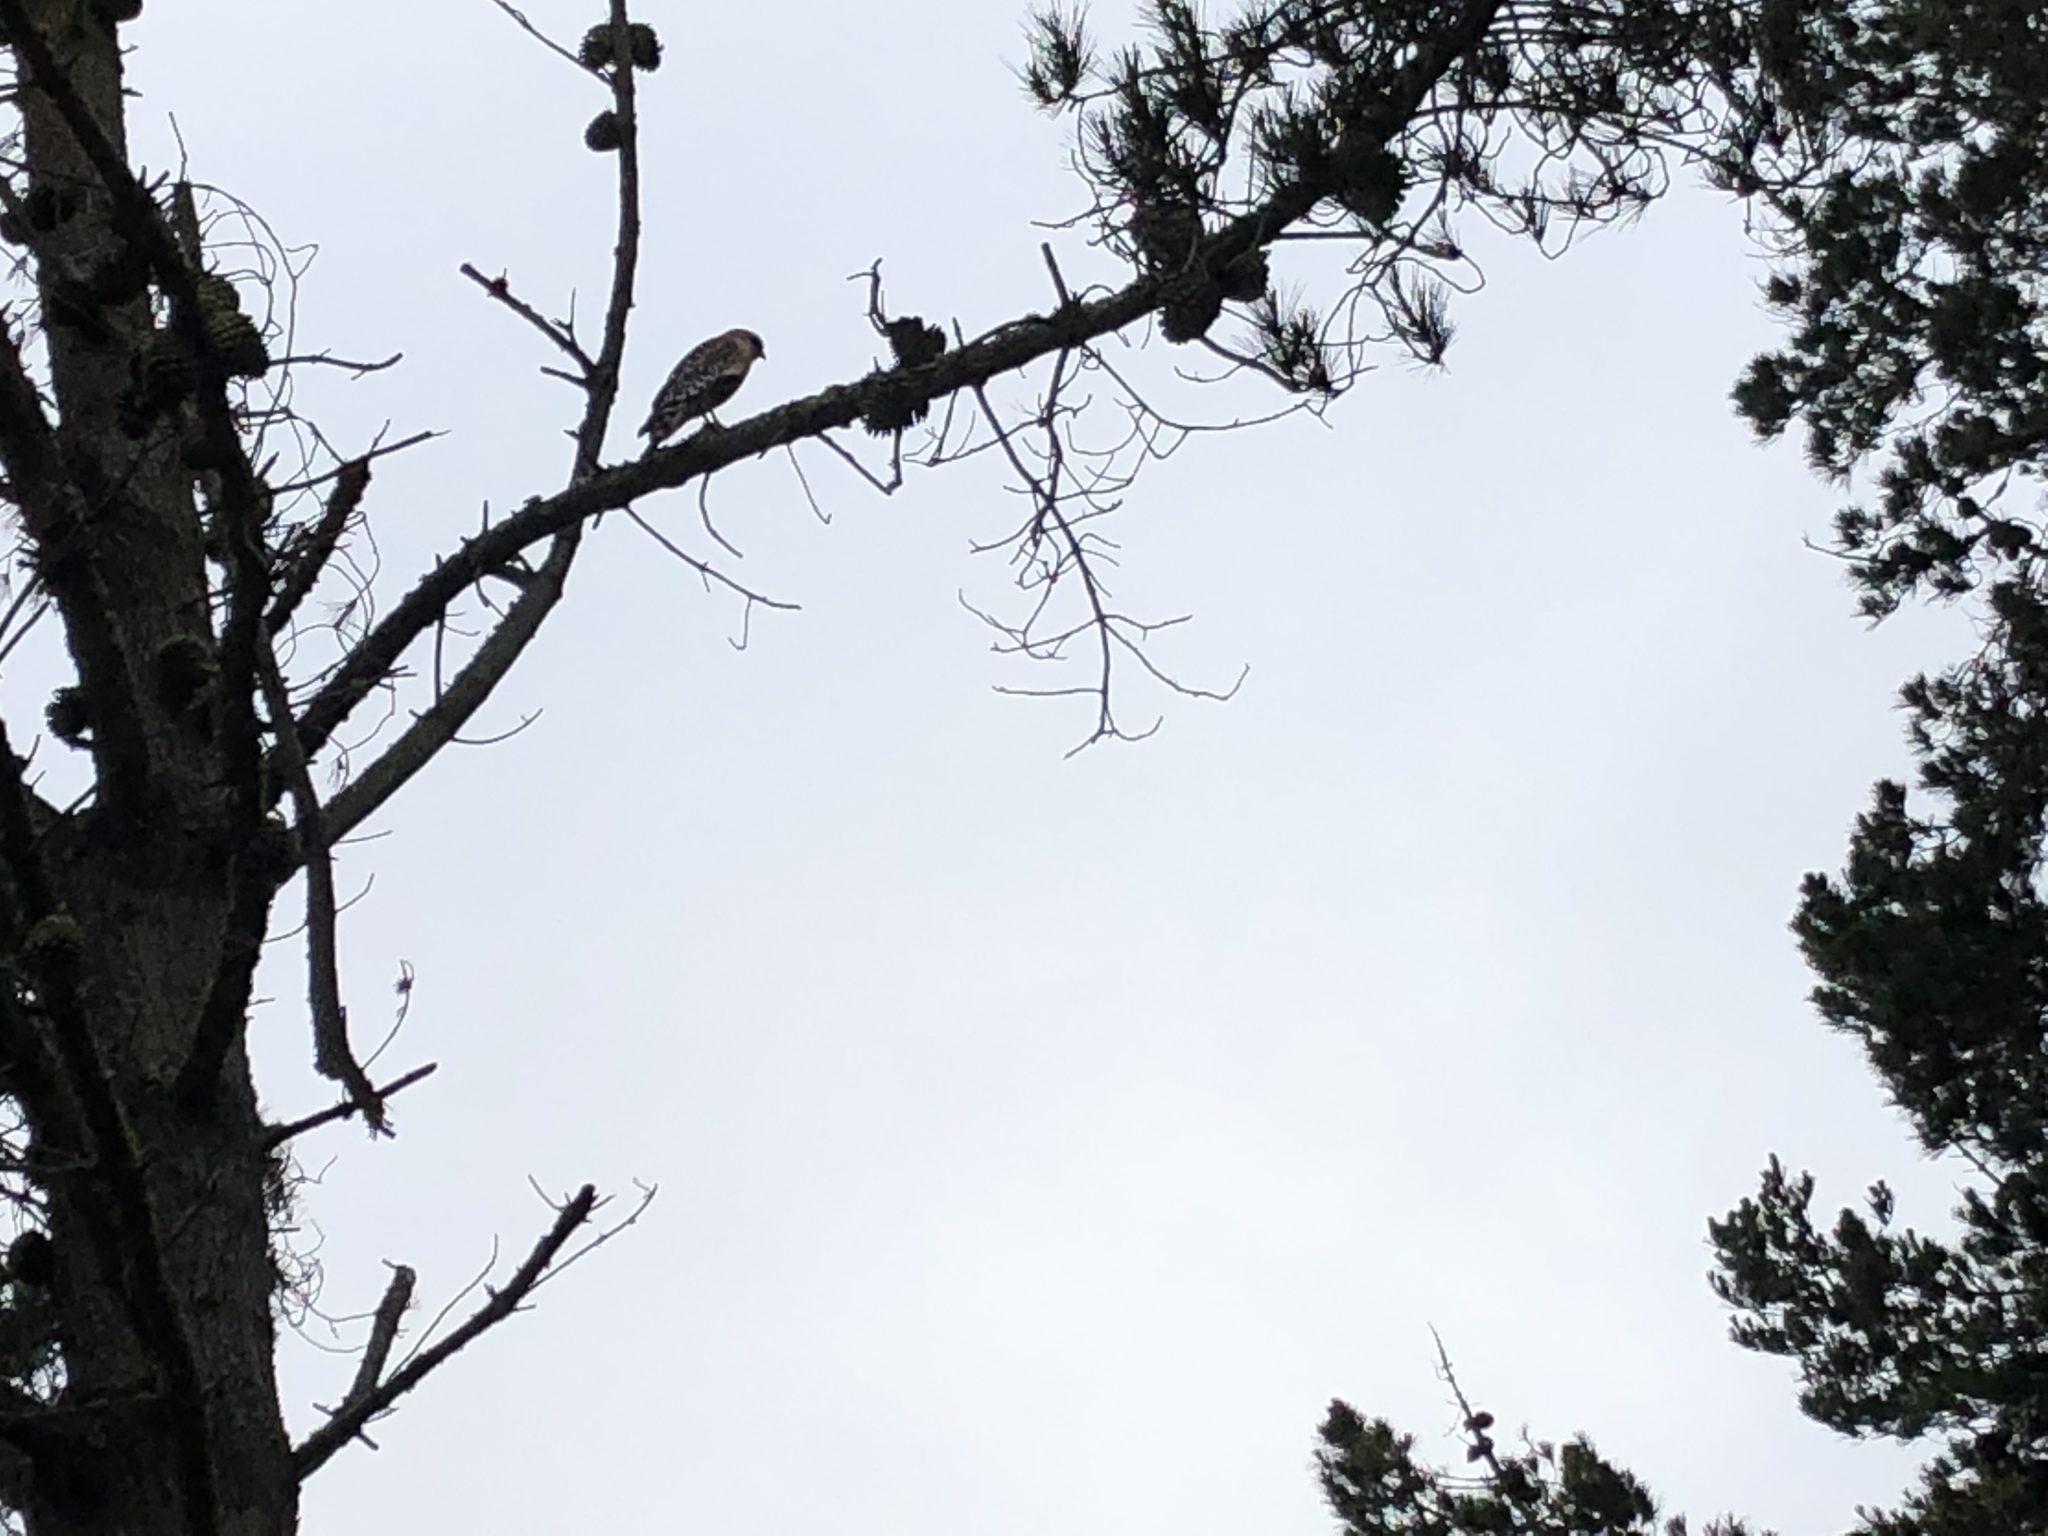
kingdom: Animalia
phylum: Chordata
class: Aves
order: Accipitriformes
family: Accipitridae
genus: Buteo
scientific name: Buteo lineatus
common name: Red-shouldered hawk
